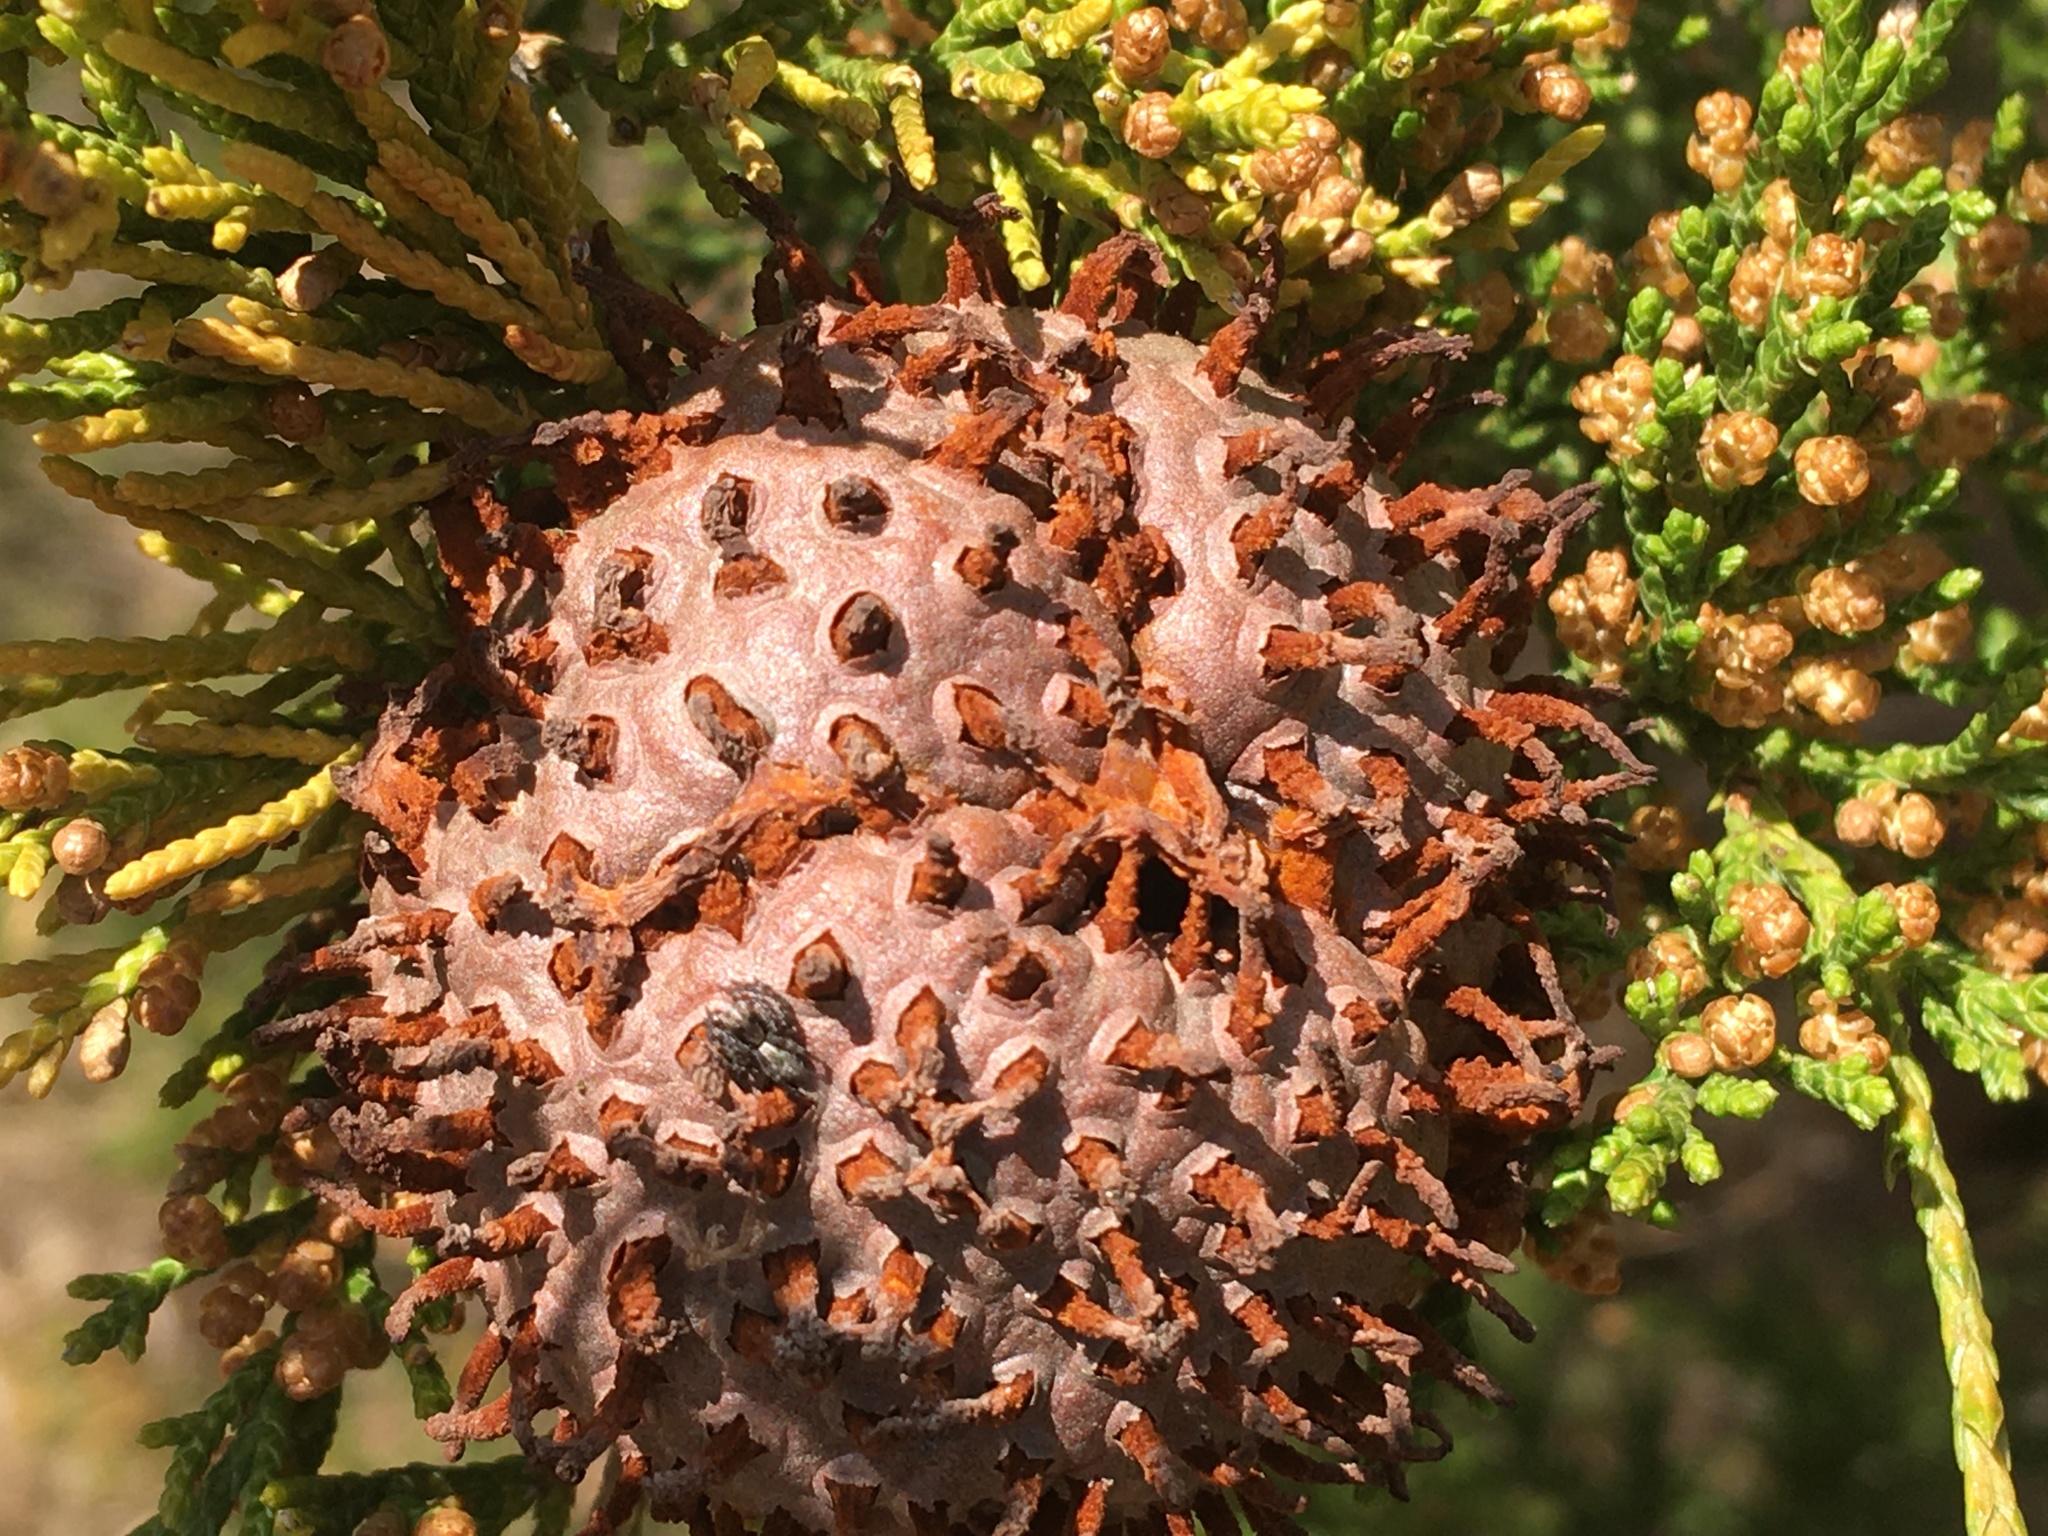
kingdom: Fungi
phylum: Basidiomycota
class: Pucciniomycetes
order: Pucciniales
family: Gymnosporangiaceae
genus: Gymnosporangium
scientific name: Gymnosporangium juniperi-virginianae
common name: Juniper-apple rust
